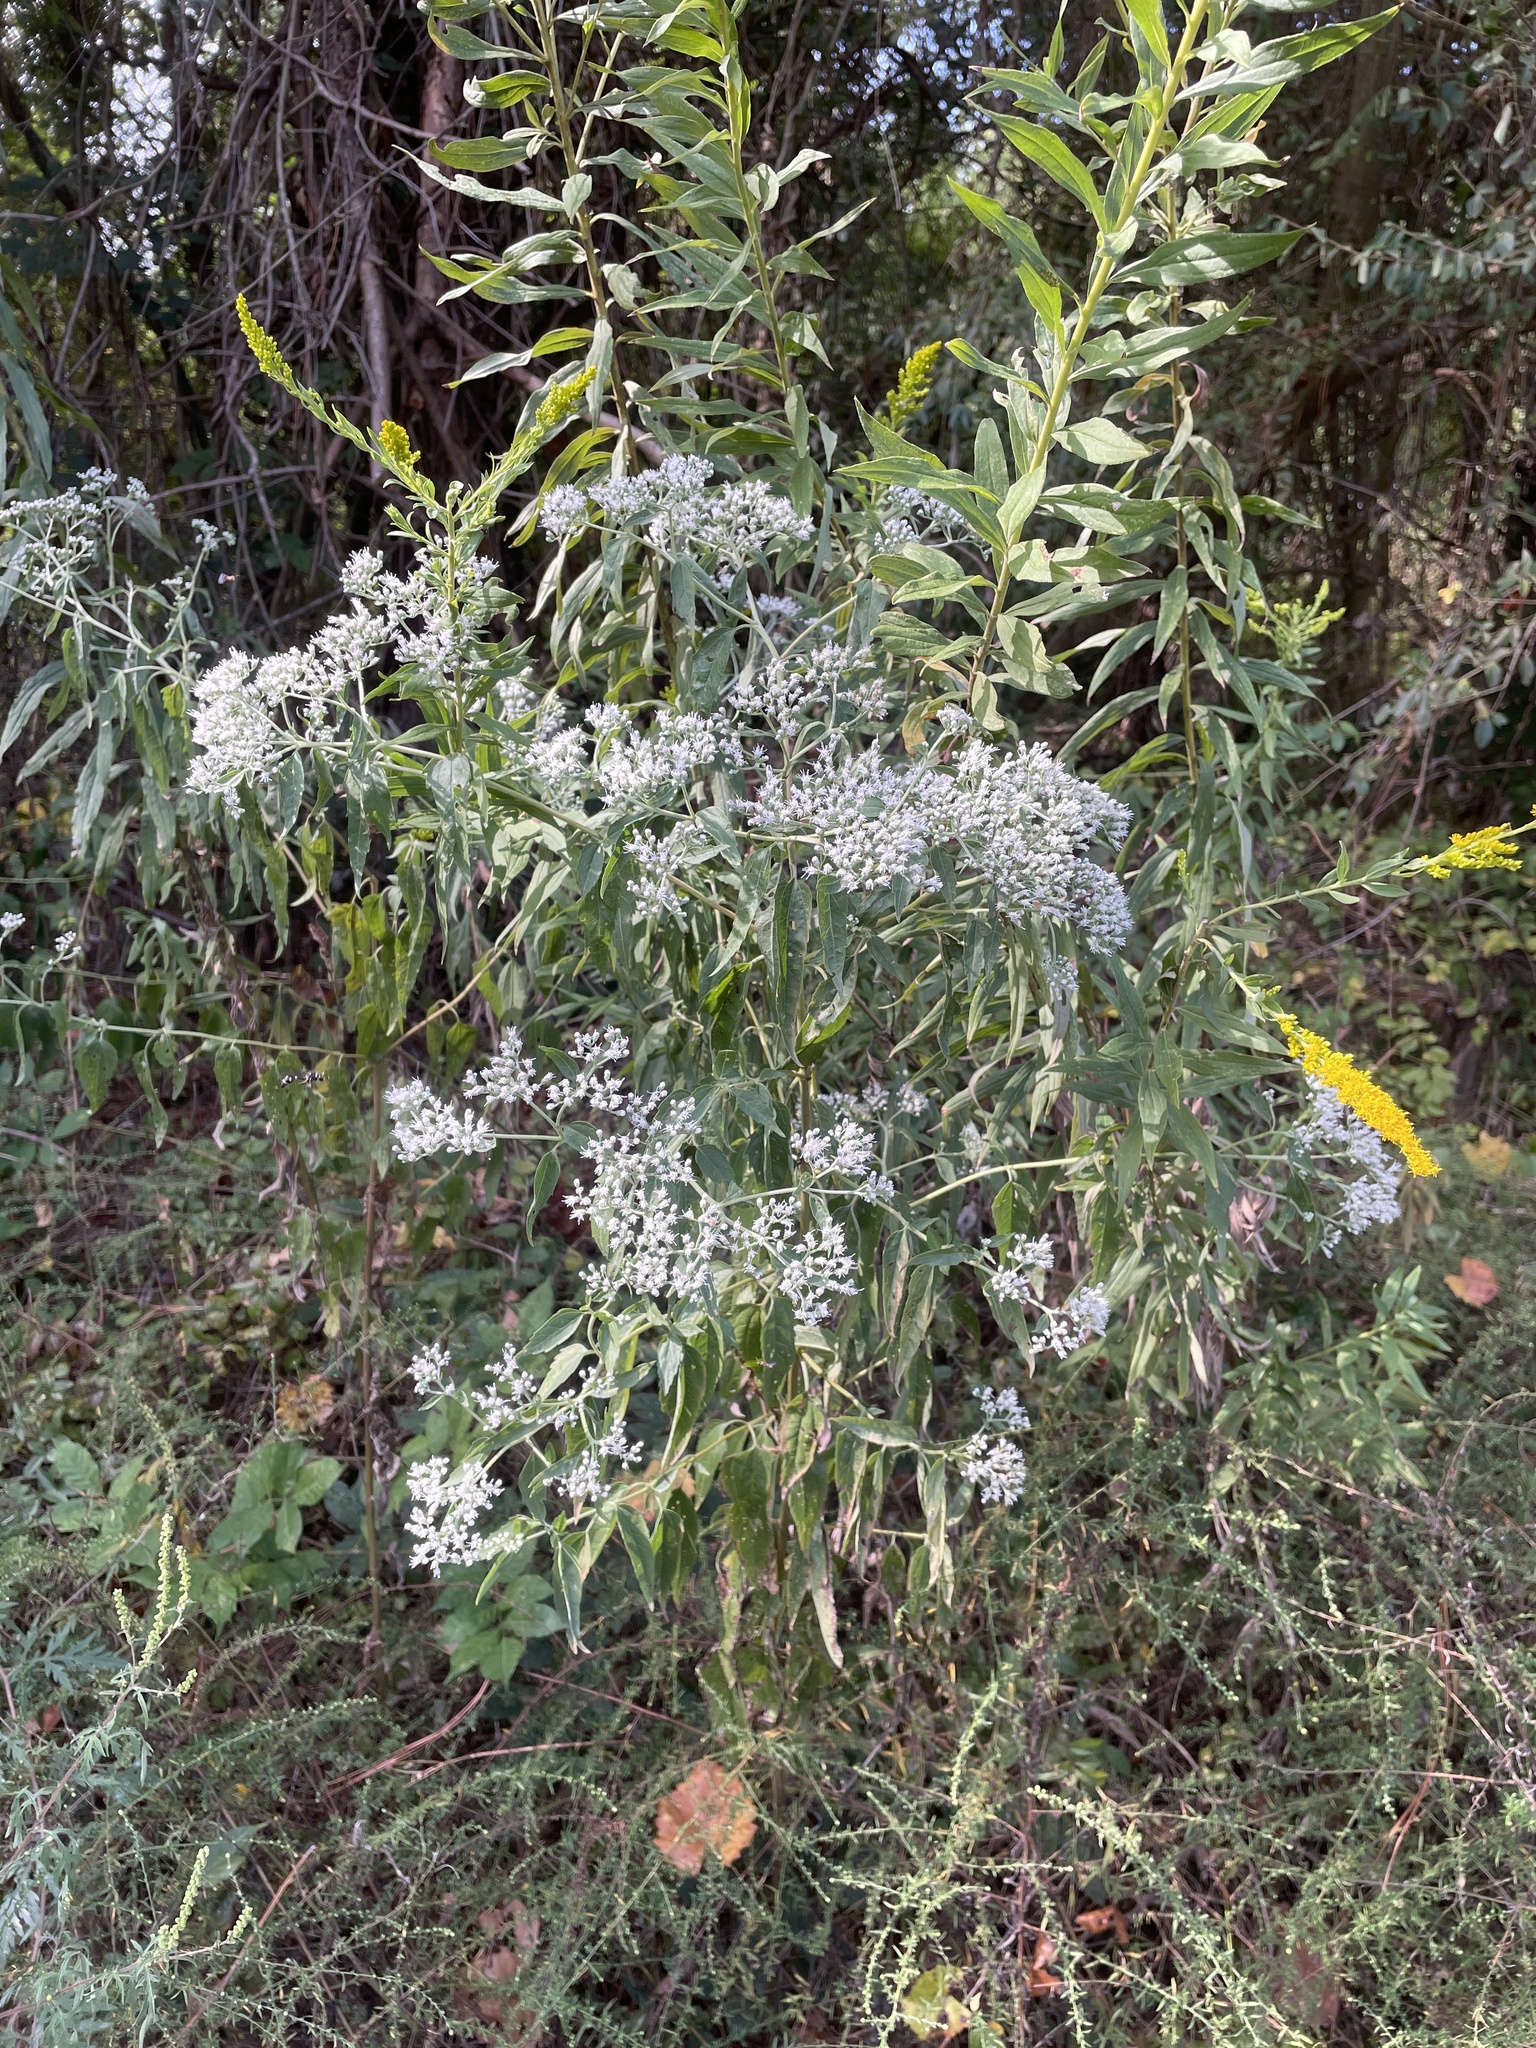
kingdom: Plantae
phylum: Tracheophyta
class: Magnoliopsida
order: Asterales
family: Asteraceae
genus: Eupatorium
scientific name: Eupatorium serotinum
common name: Late boneset
